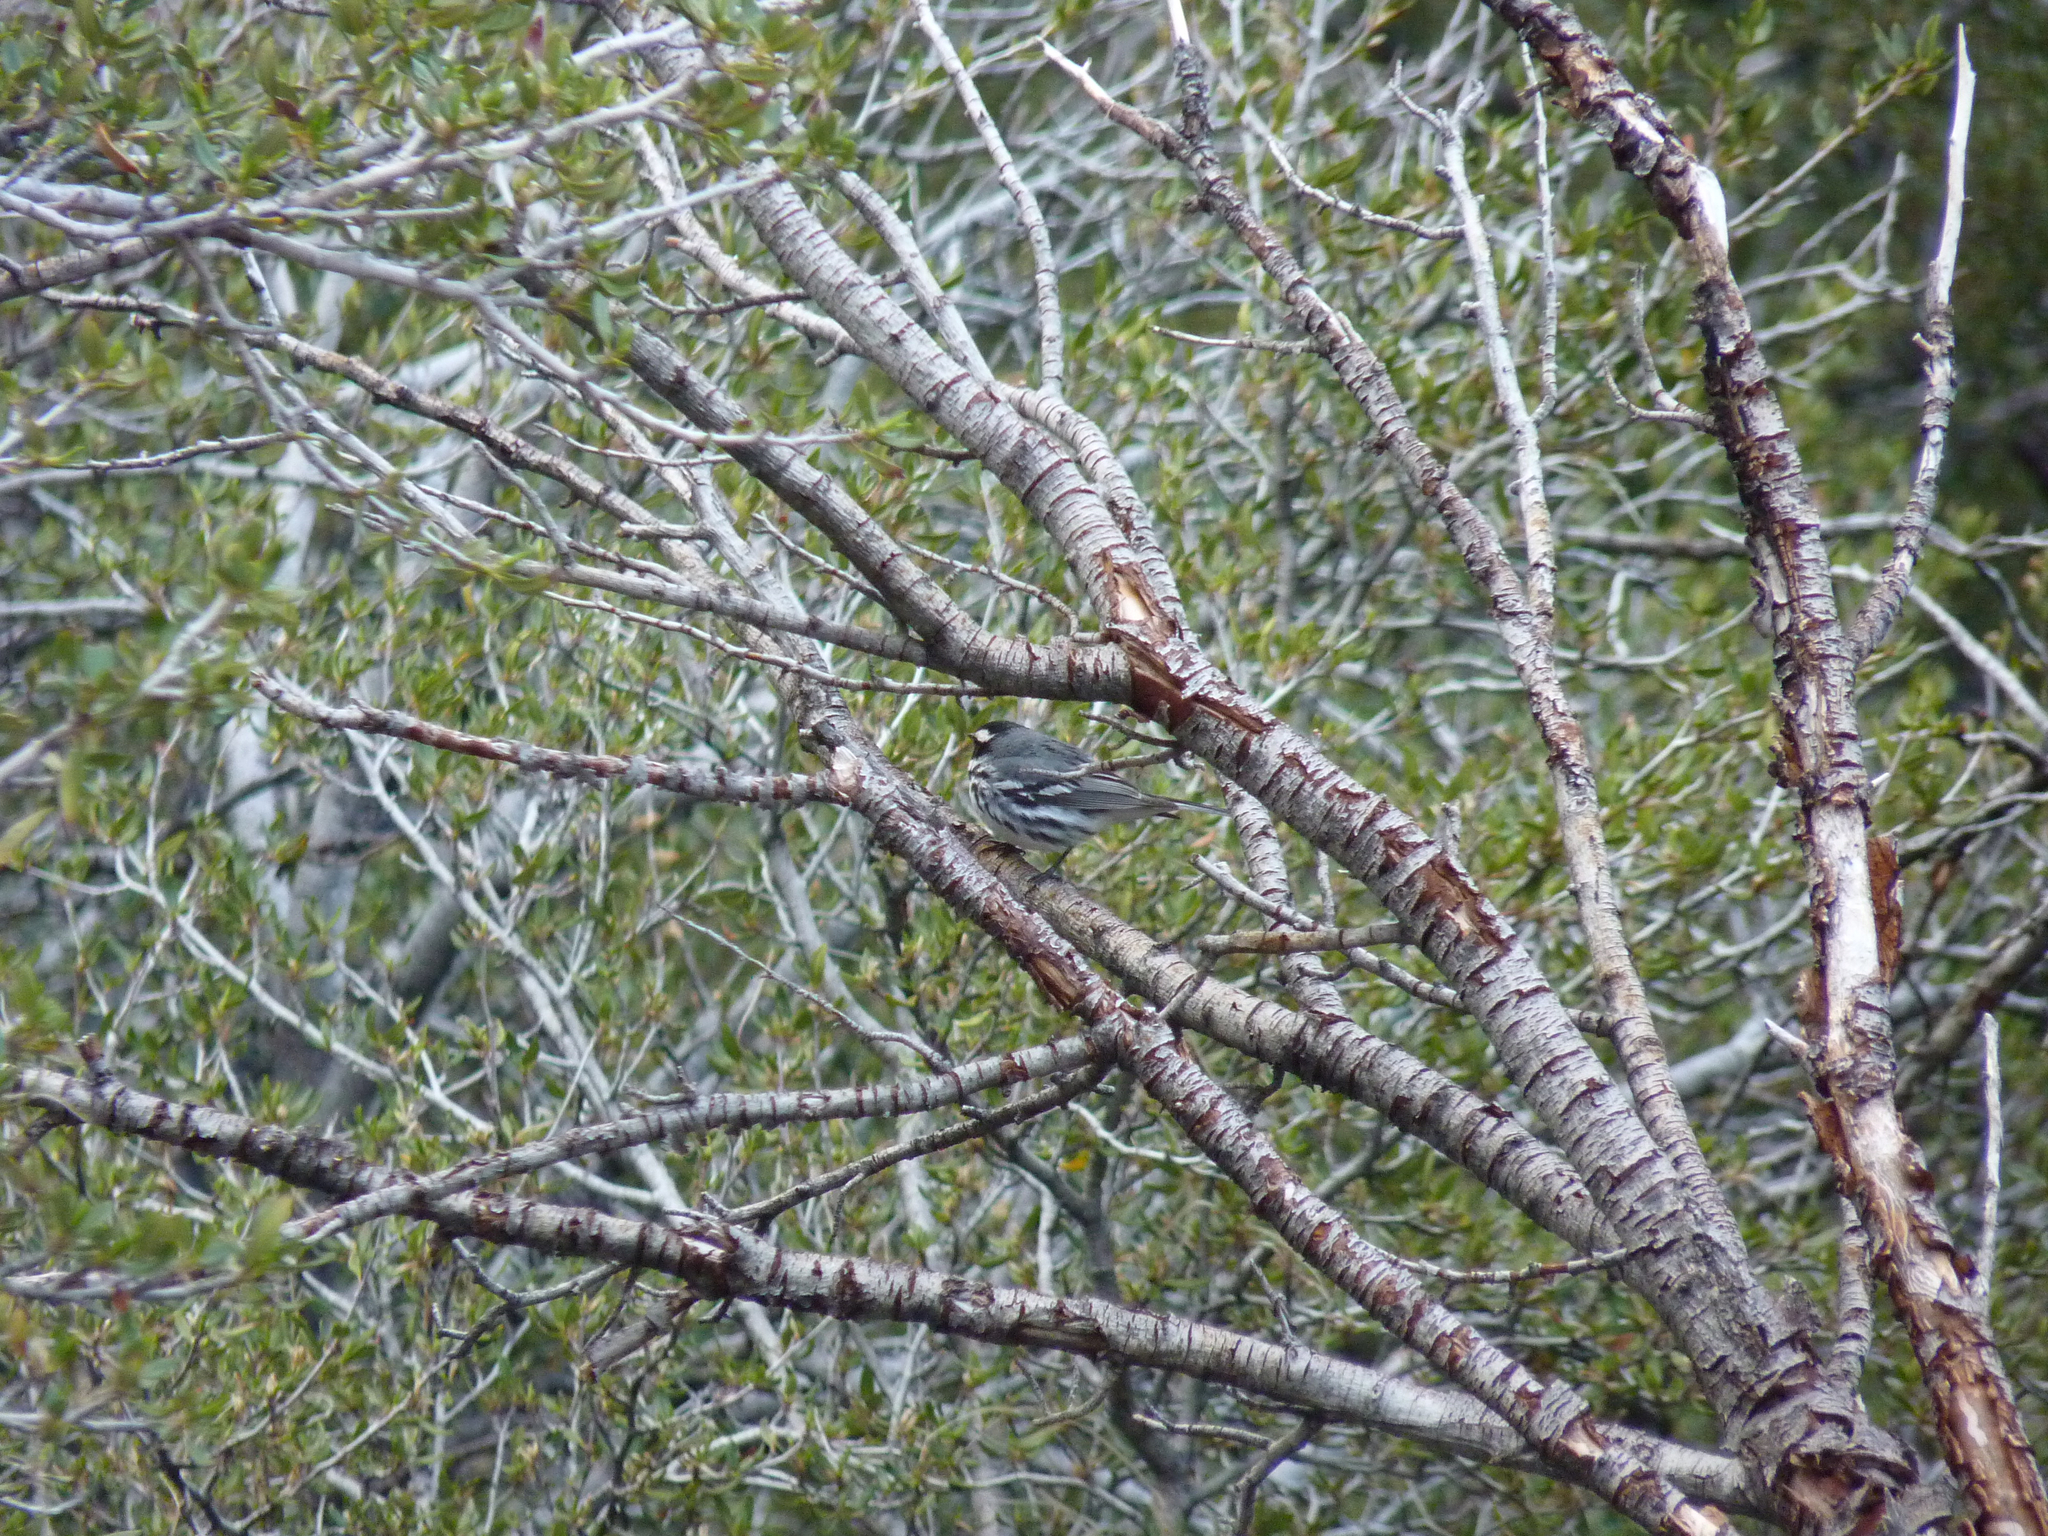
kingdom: Animalia
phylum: Chordata
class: Aves
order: Passeriformes
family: Parulidae
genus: Setophaga
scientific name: Setophaga nigrescens
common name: Black-throated gray warbler
